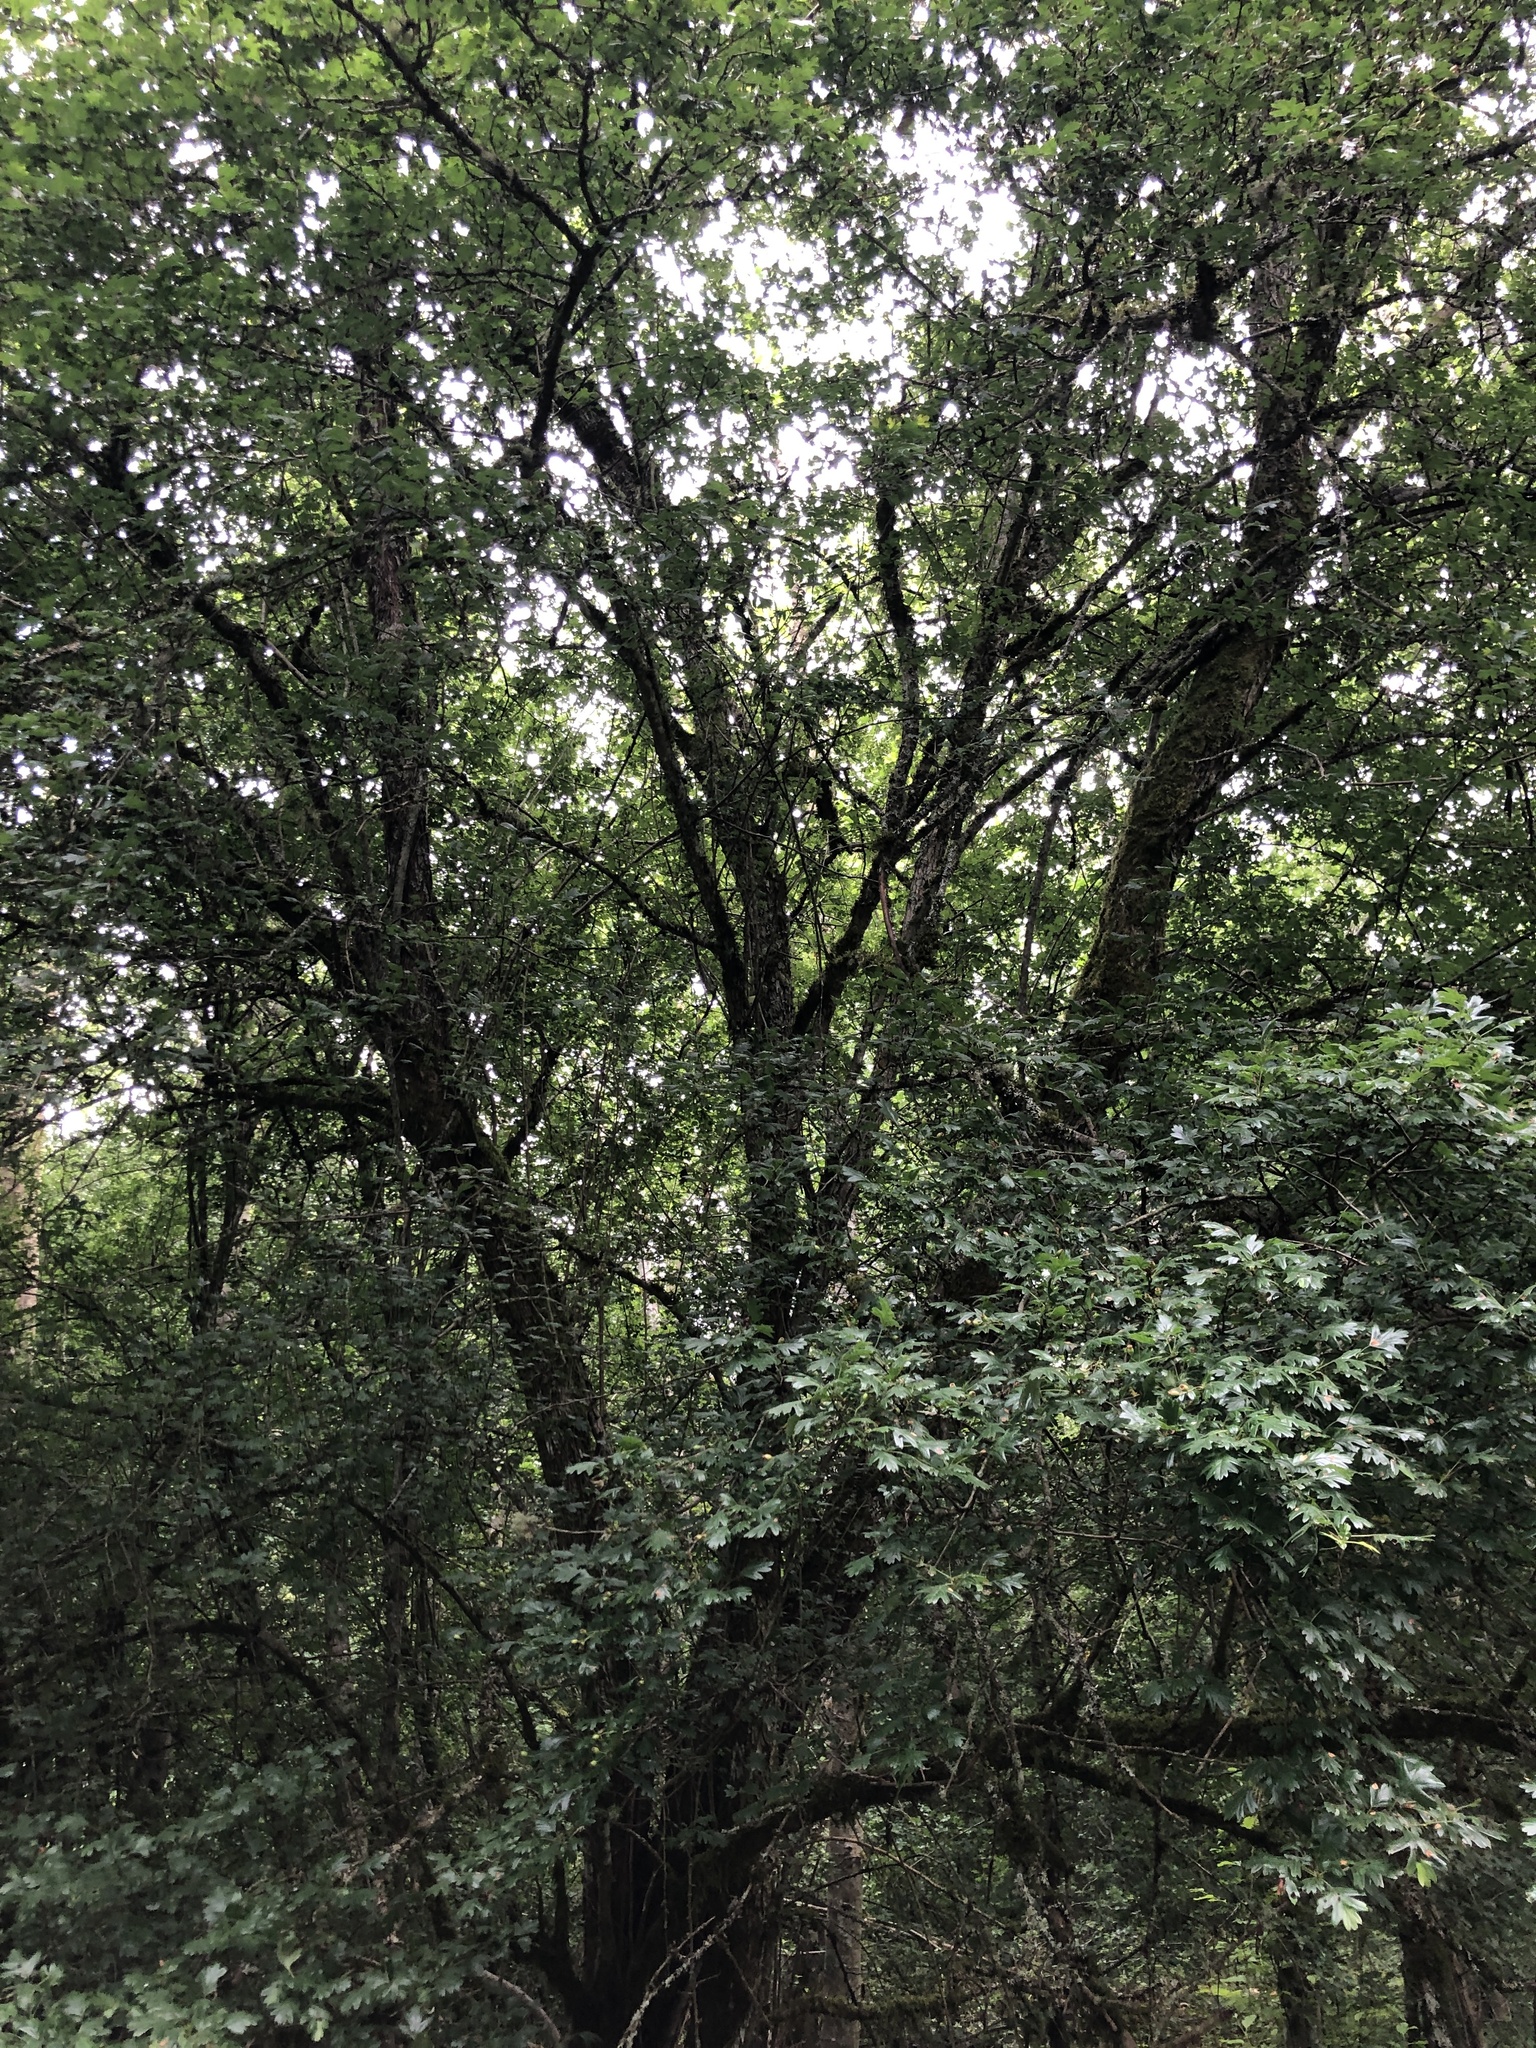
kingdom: Plantae
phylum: Tracheophyta
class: Magnoliopsida
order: Rosales
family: Rosaceae
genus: Crataegus
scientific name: Crataegus monogyna
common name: Hawthorn
